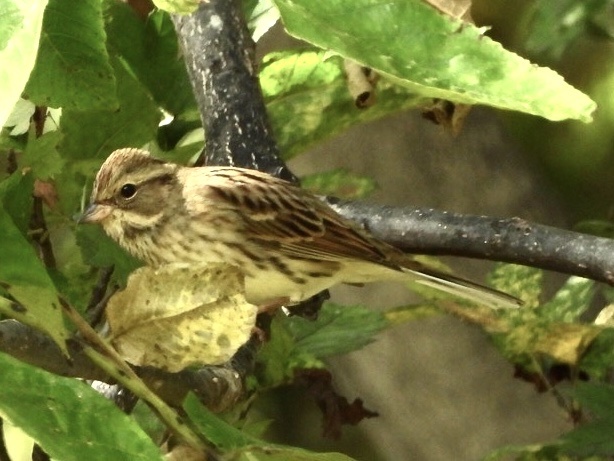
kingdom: Animalia
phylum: Chordata
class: Aves
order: Passeriformes
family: Emberizidae
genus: Emberiza
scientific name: Emberiza spodocephala
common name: Black-faced bunting
